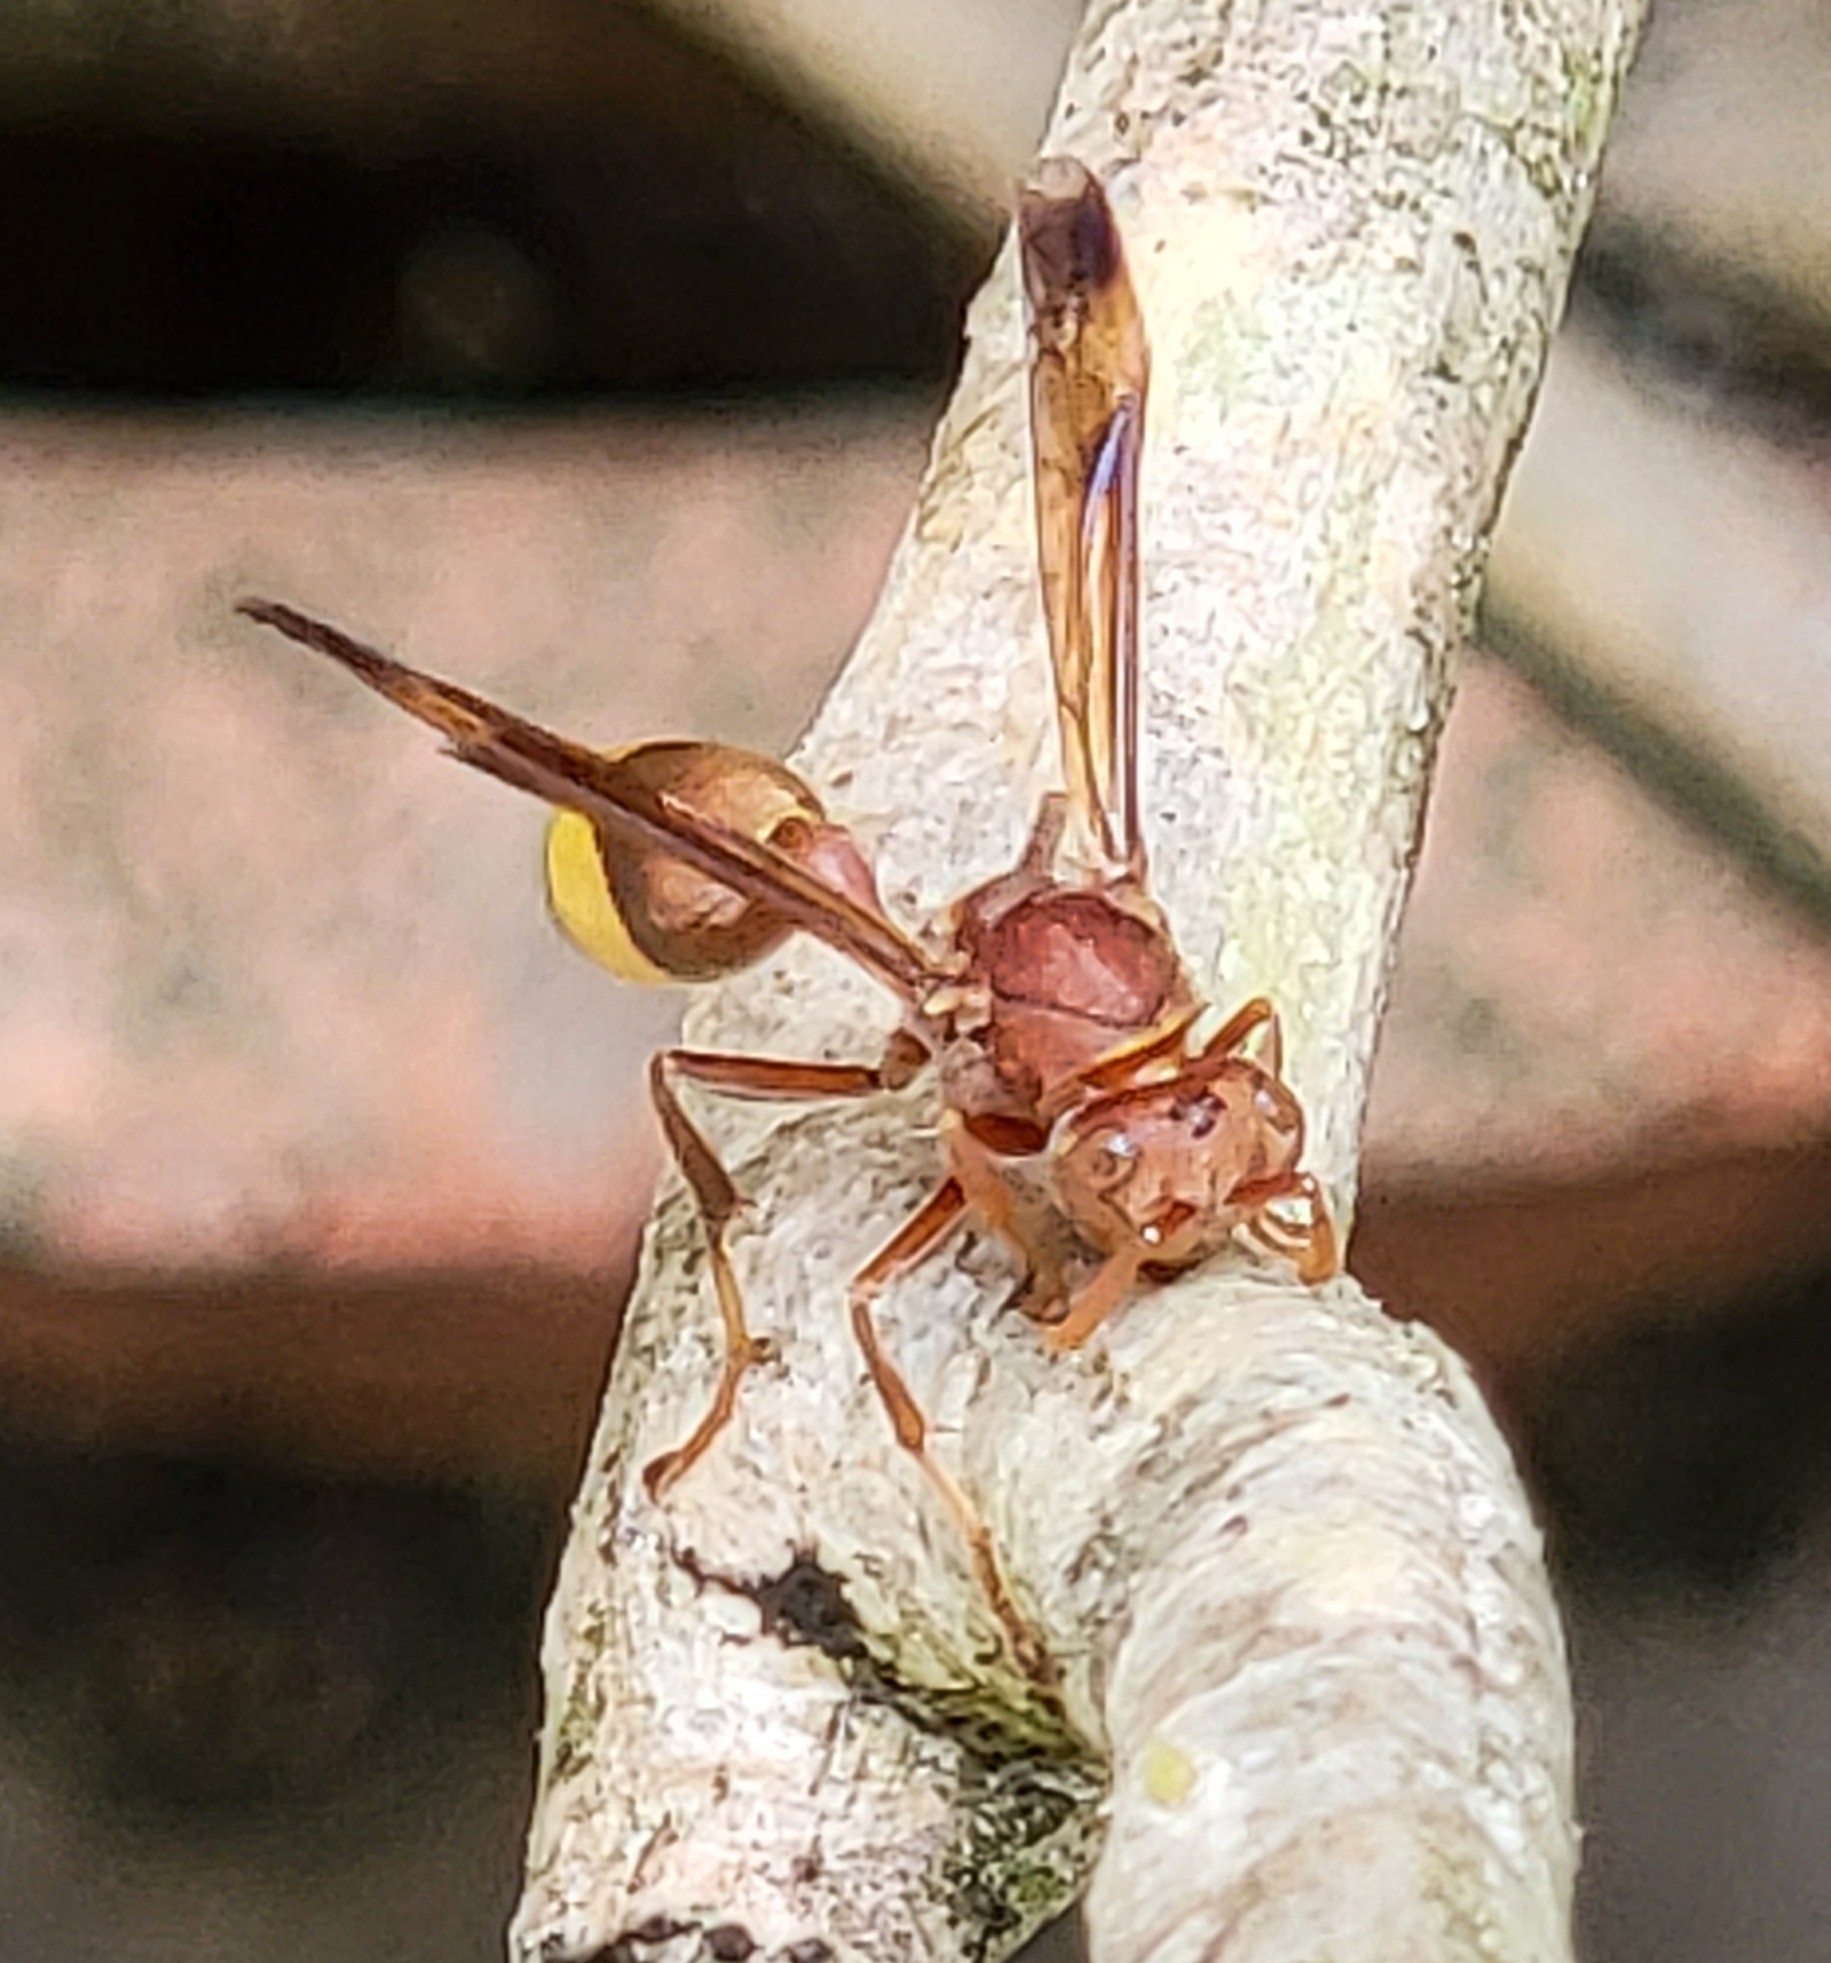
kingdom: Animalia
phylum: Arthropoda
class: Insecta
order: Hymenoptera
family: Vespidae
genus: Ropalidia
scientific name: Ropalidia
